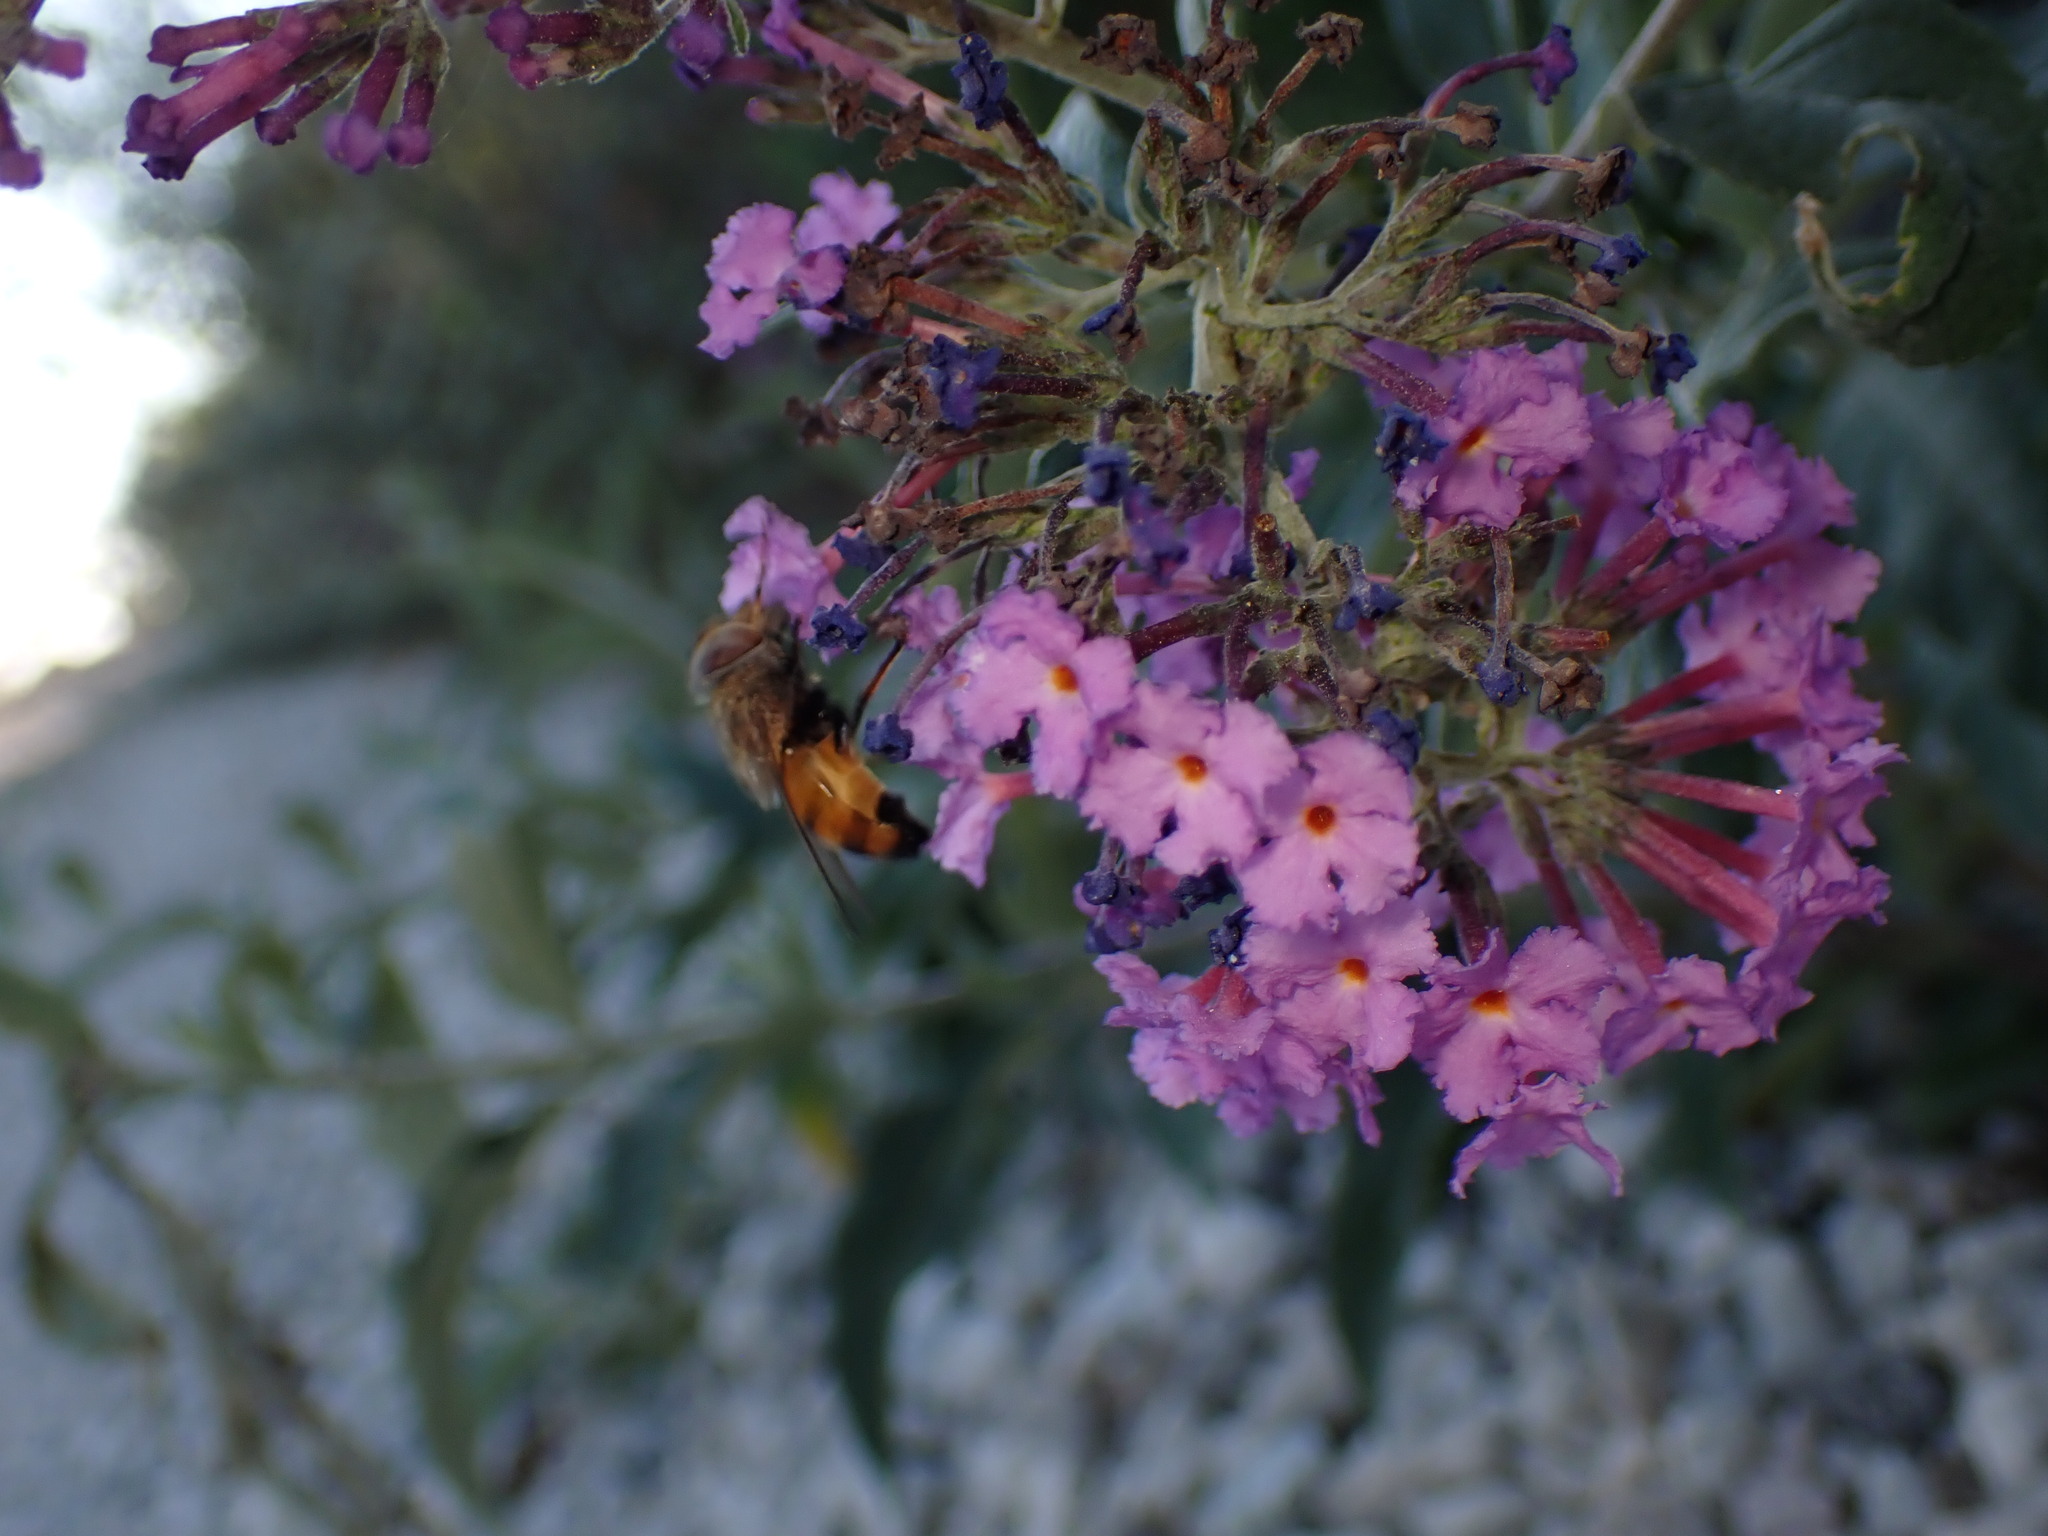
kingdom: Animalia
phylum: Arthropoda
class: Insecta
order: Diptera
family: Syrphidae
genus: Copestylum
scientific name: Copestylum haagii
